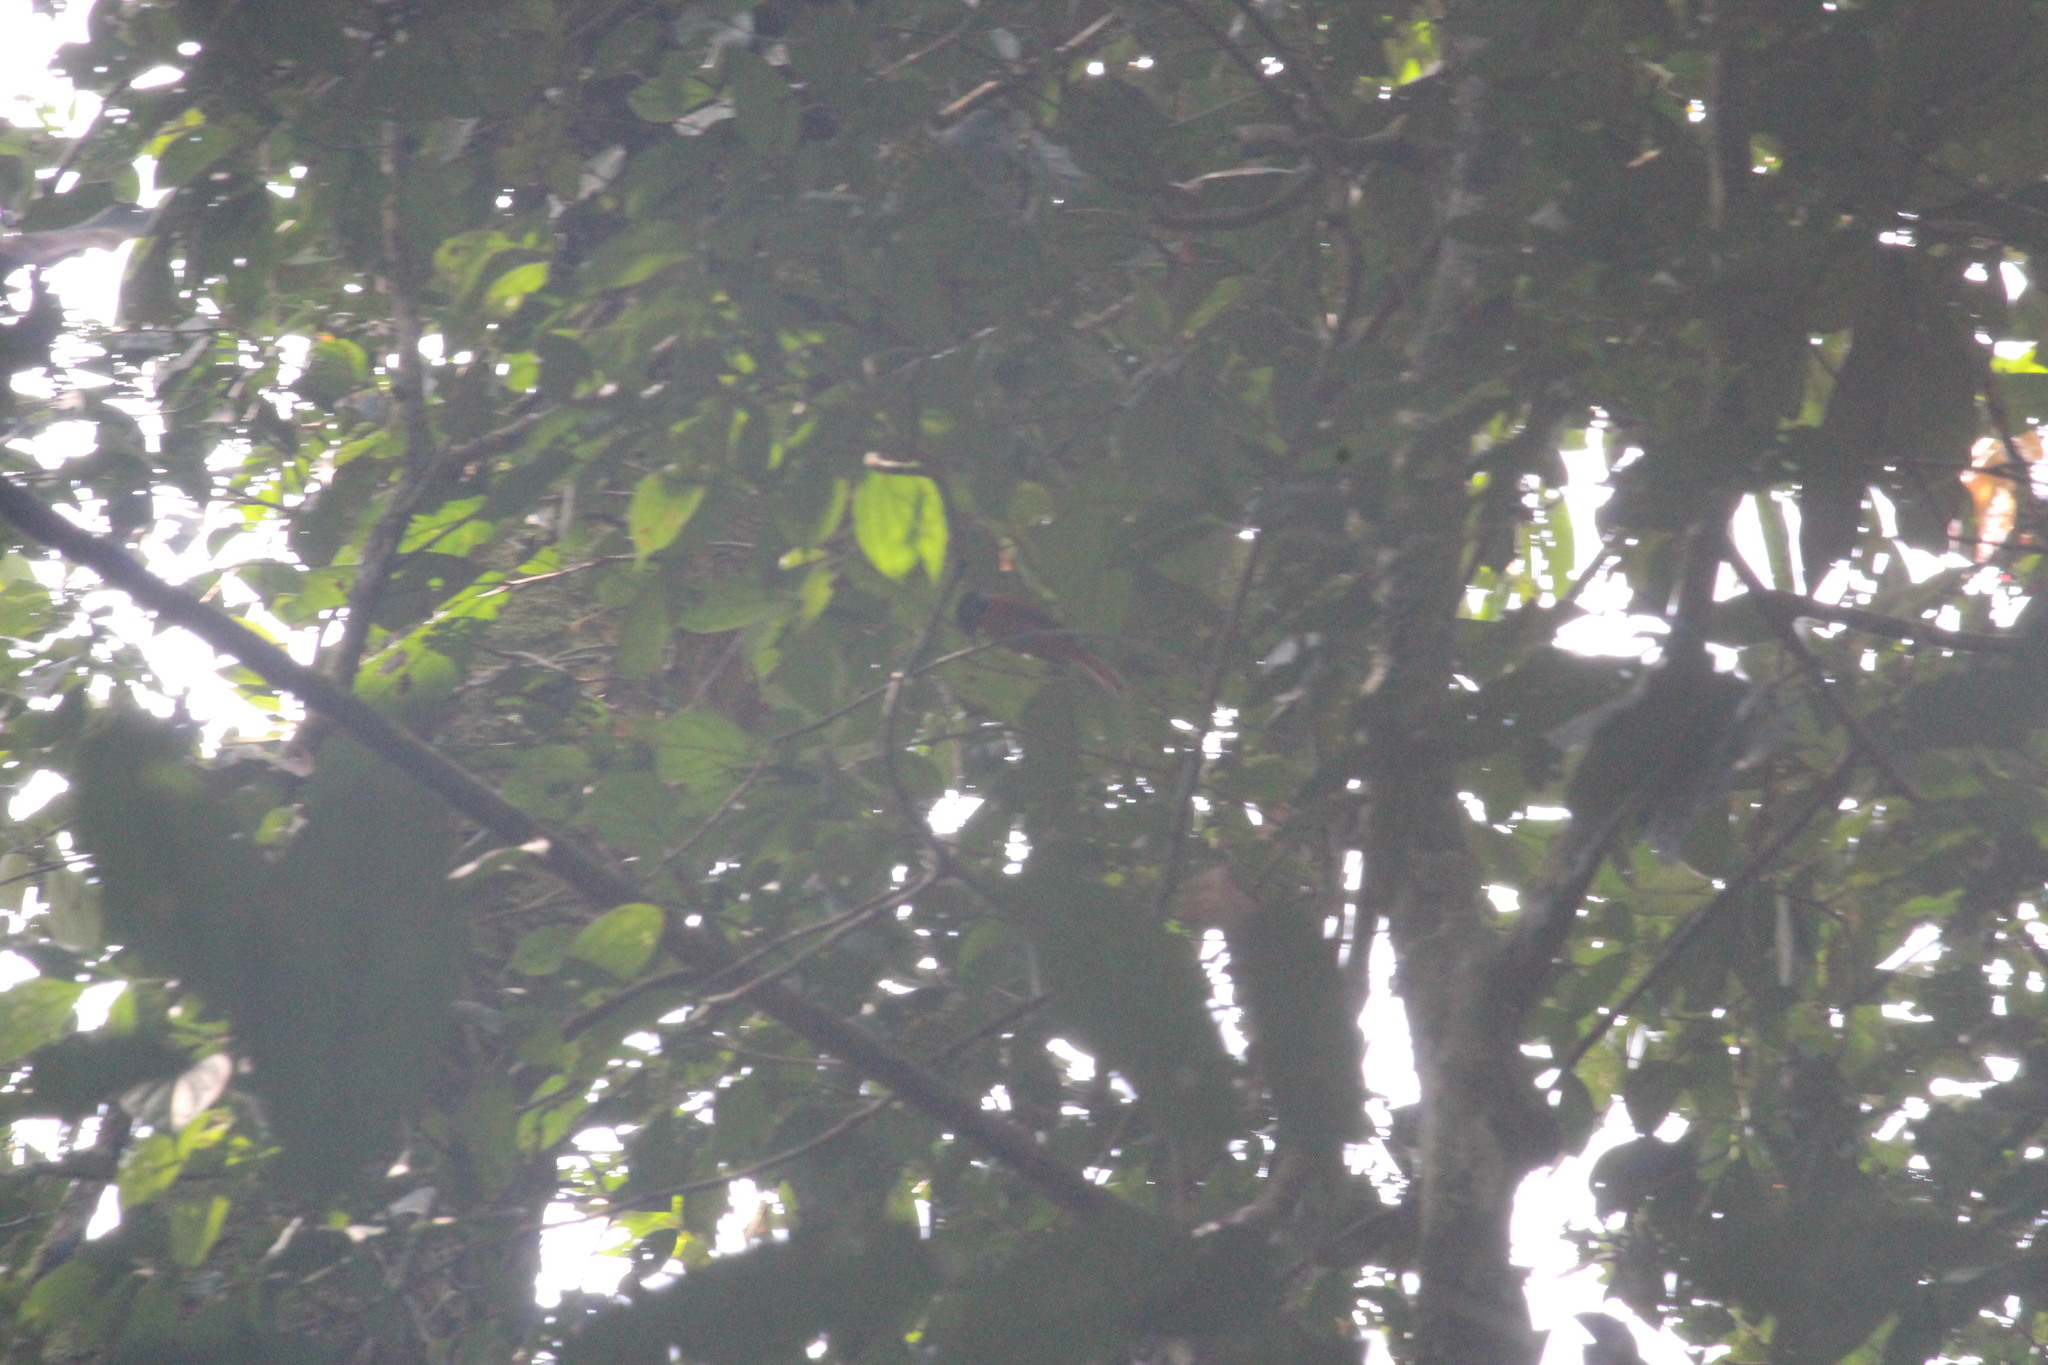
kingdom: Animalia
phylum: Chordata
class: Aves
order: Passeriformes
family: Monarchidae
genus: Terpsiphone
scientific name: Terpsiphone rufiventer
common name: Red-bellied paradise flycatcher
